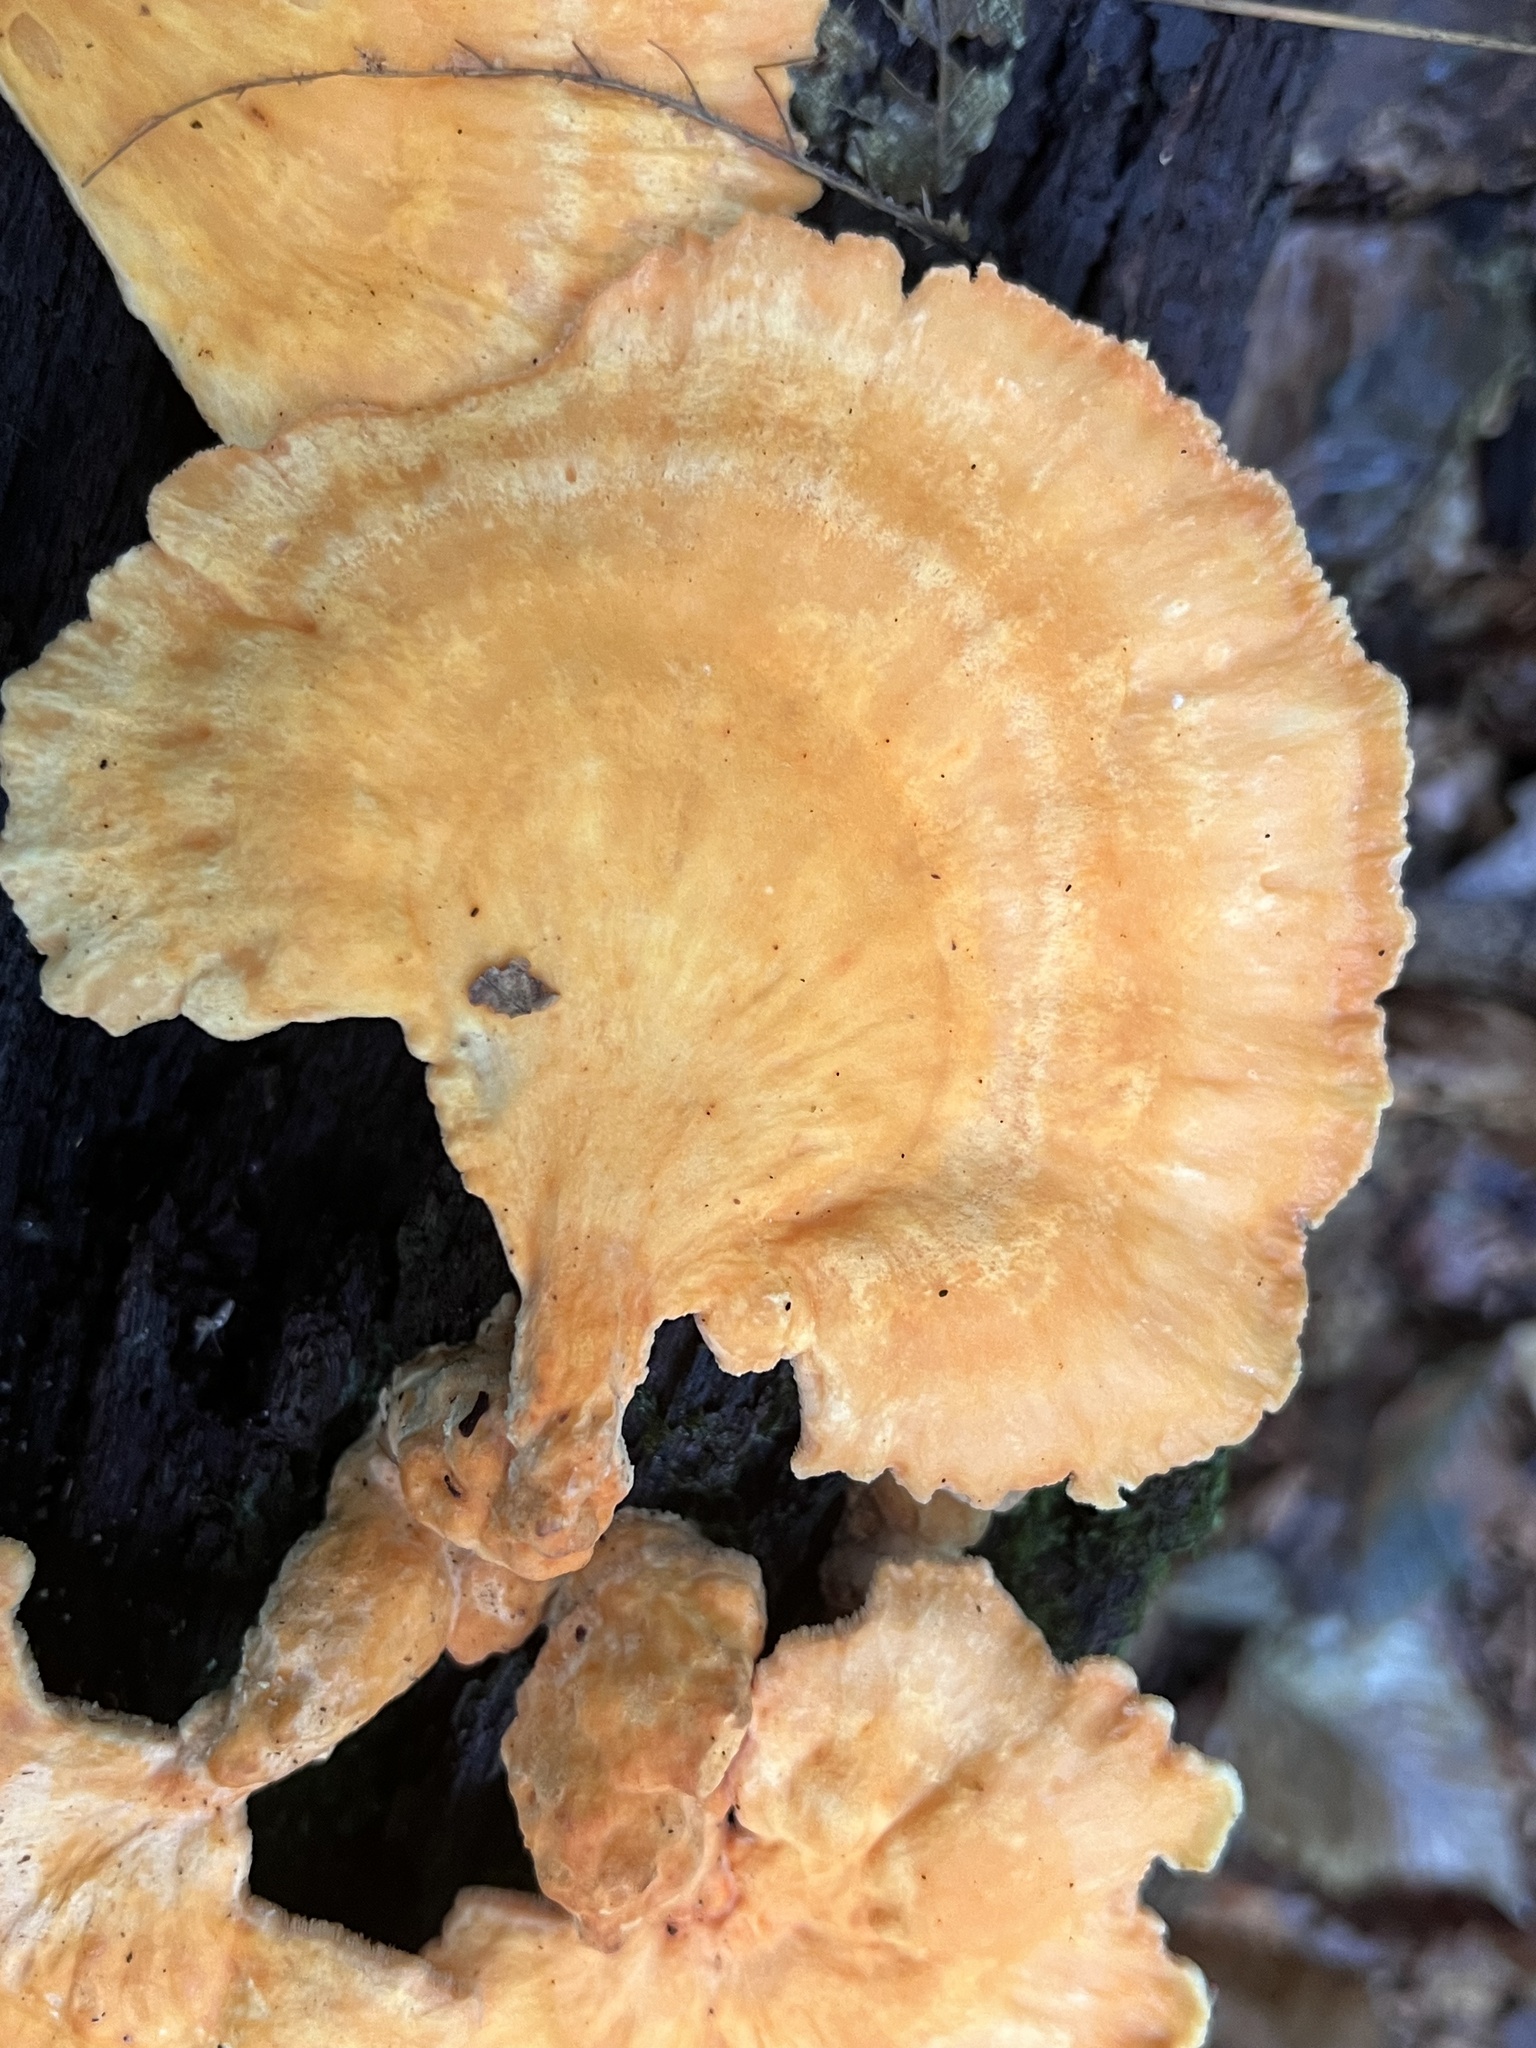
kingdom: Fungi
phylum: Basidiomycota
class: Agaricomycetes
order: Polyporales
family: Laetiporaceae
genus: Laetiporus
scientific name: Laetiporus sulphureus
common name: Chicken of the woods
